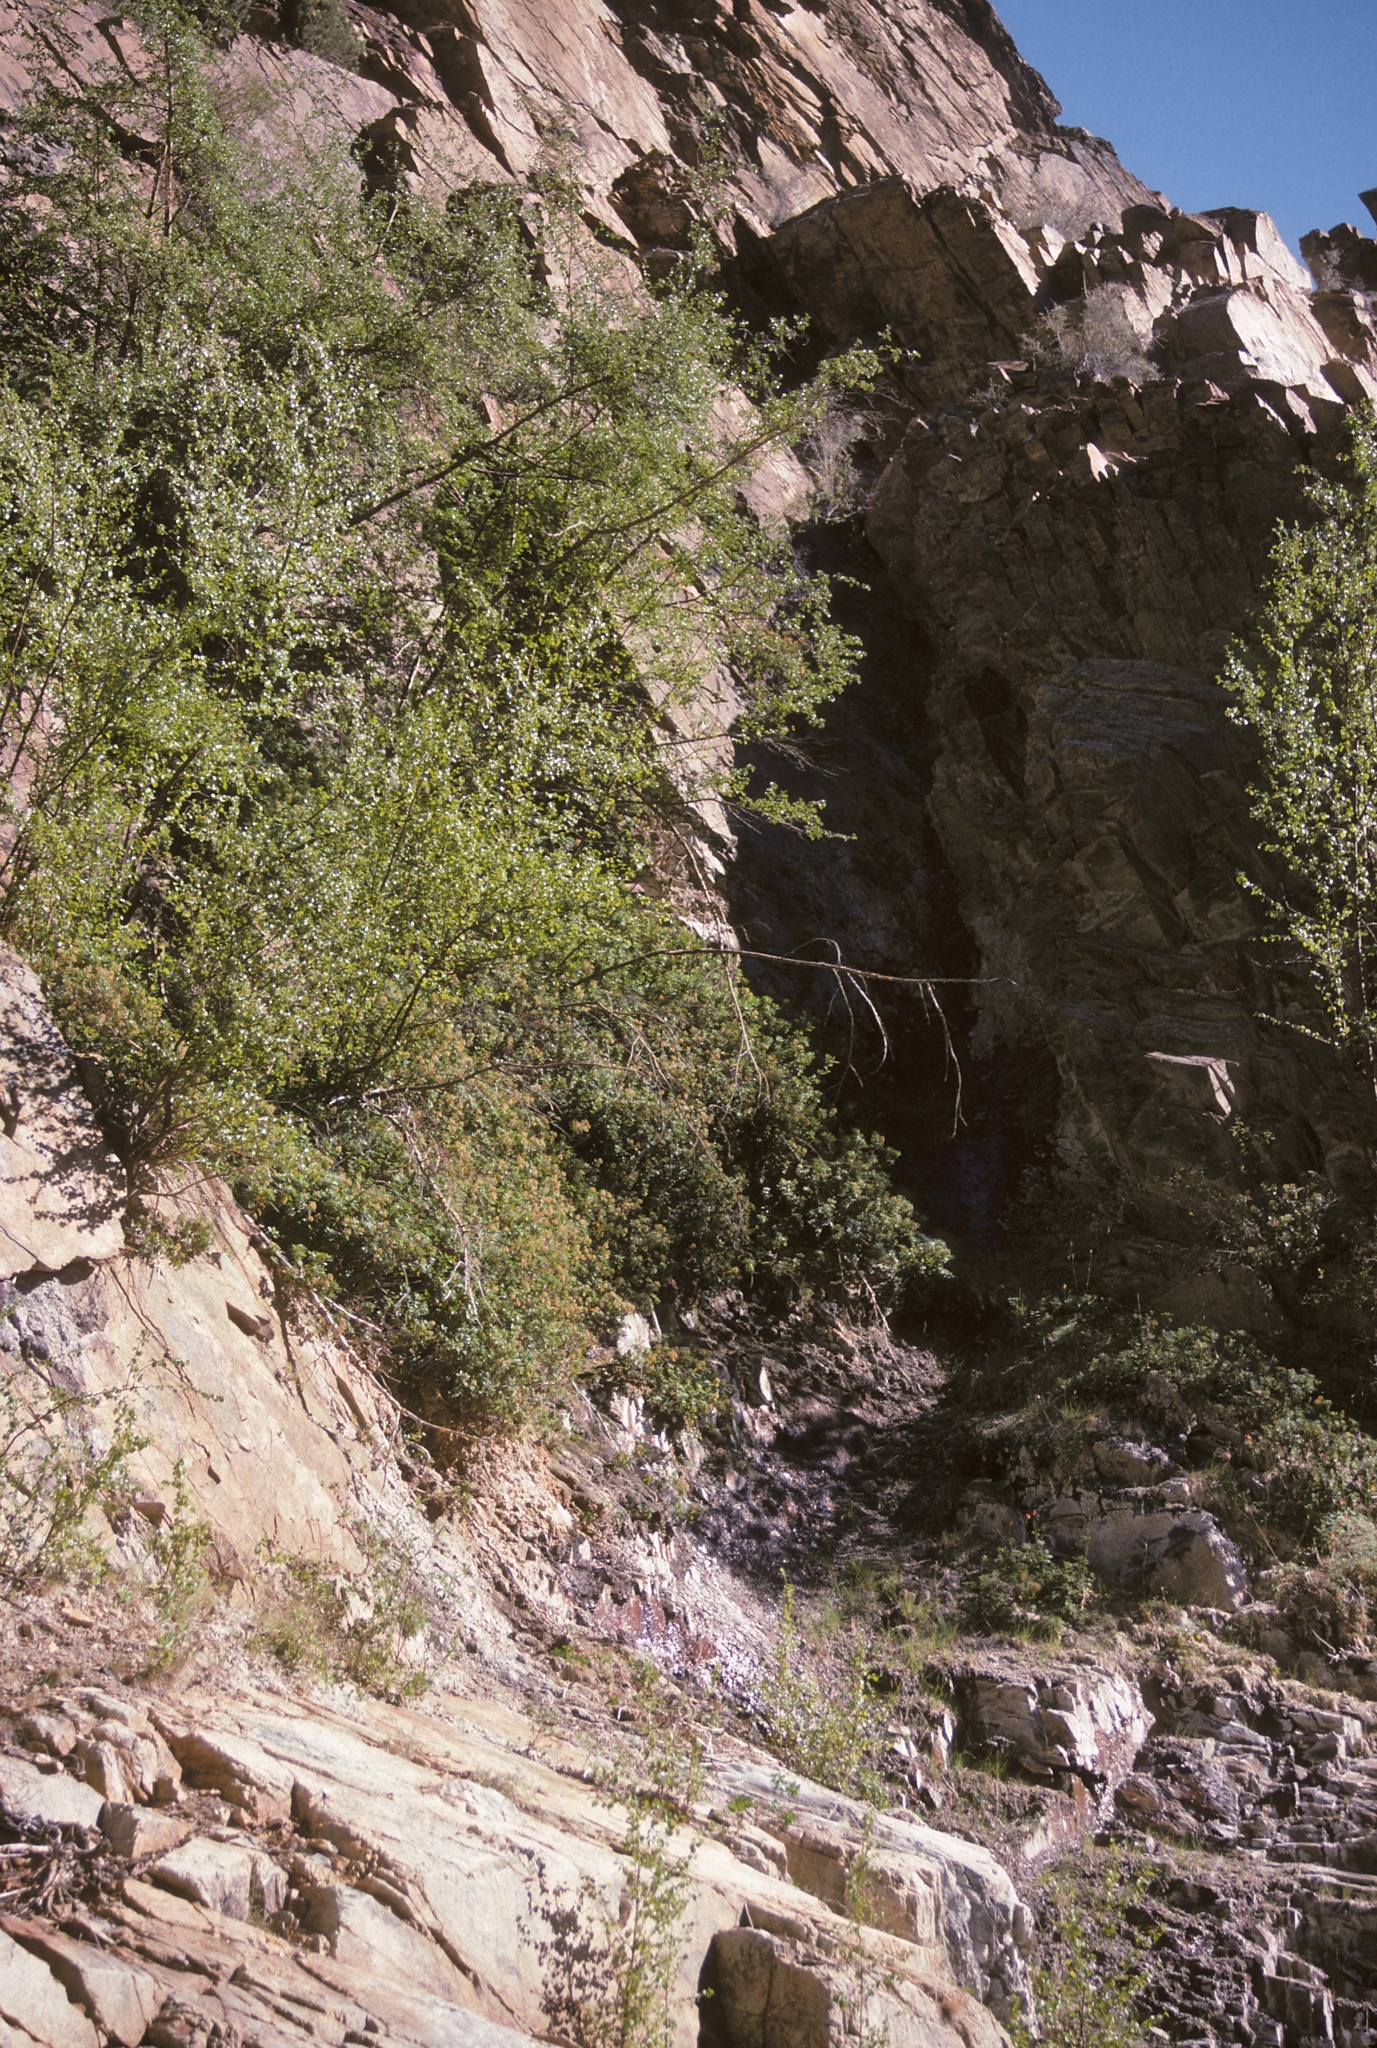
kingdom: Plantae
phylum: Tracheophyta
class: Magnoliopsida
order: Ericales
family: Ericaceae
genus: Rhododendron
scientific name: Rhododendron columbianum
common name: Western labrador tea
